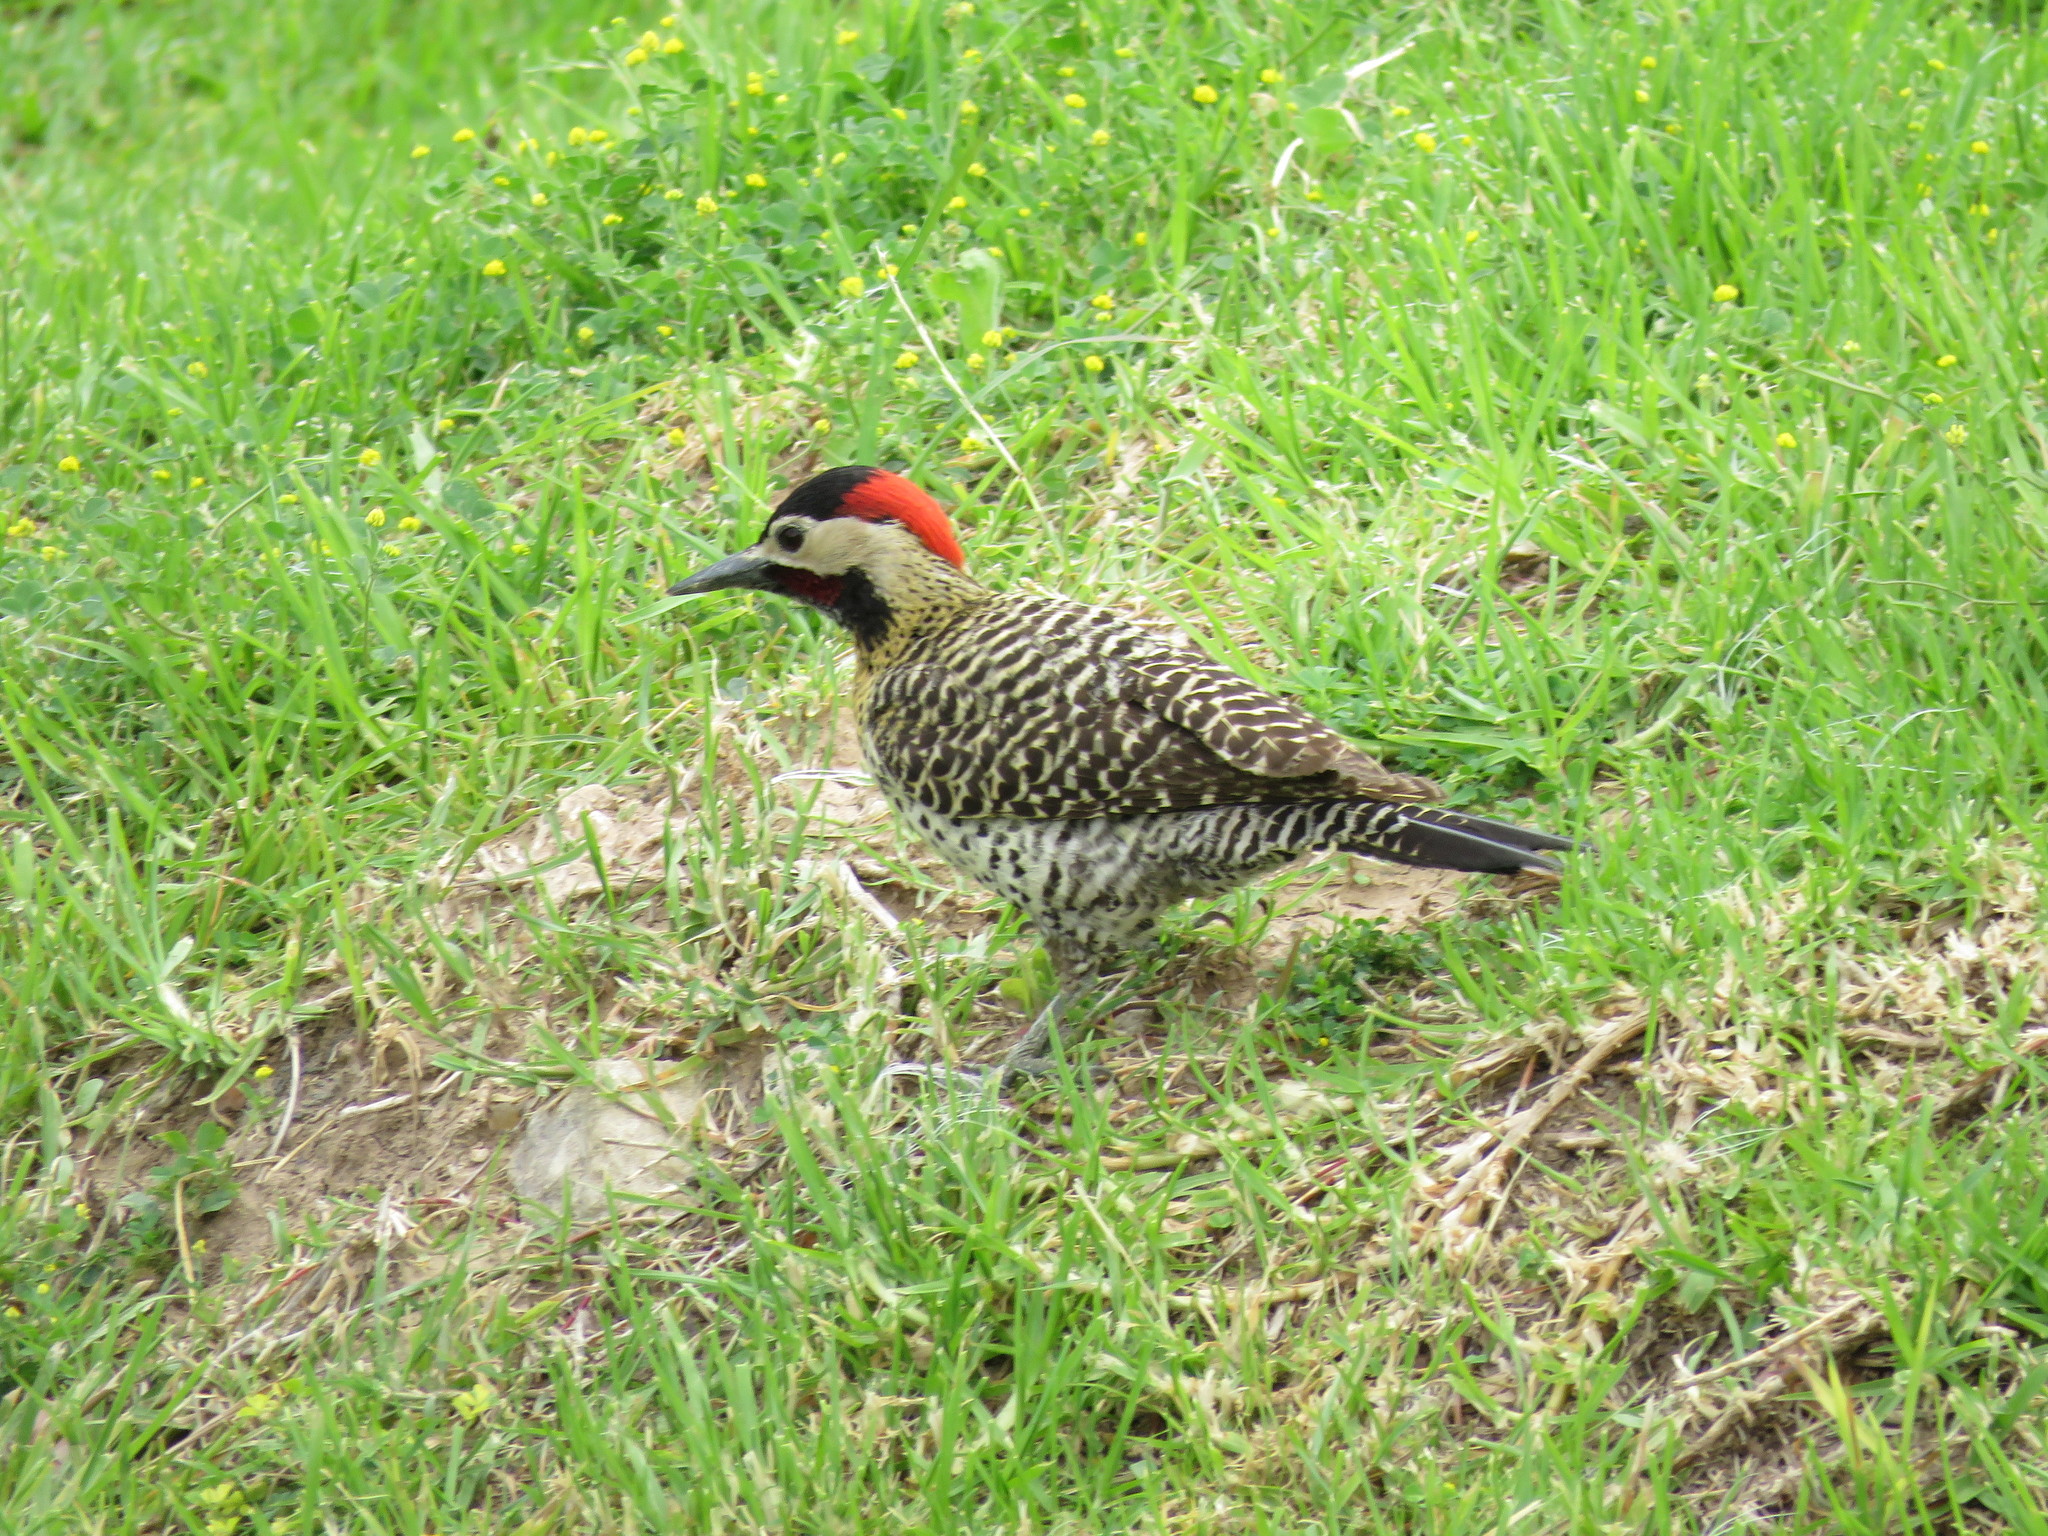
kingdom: Animalia
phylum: Chordata
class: Aves
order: Piciformes
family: Picidae
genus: Colaptes
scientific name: Colaptes melanochloros
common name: Green-barred woodpecker
